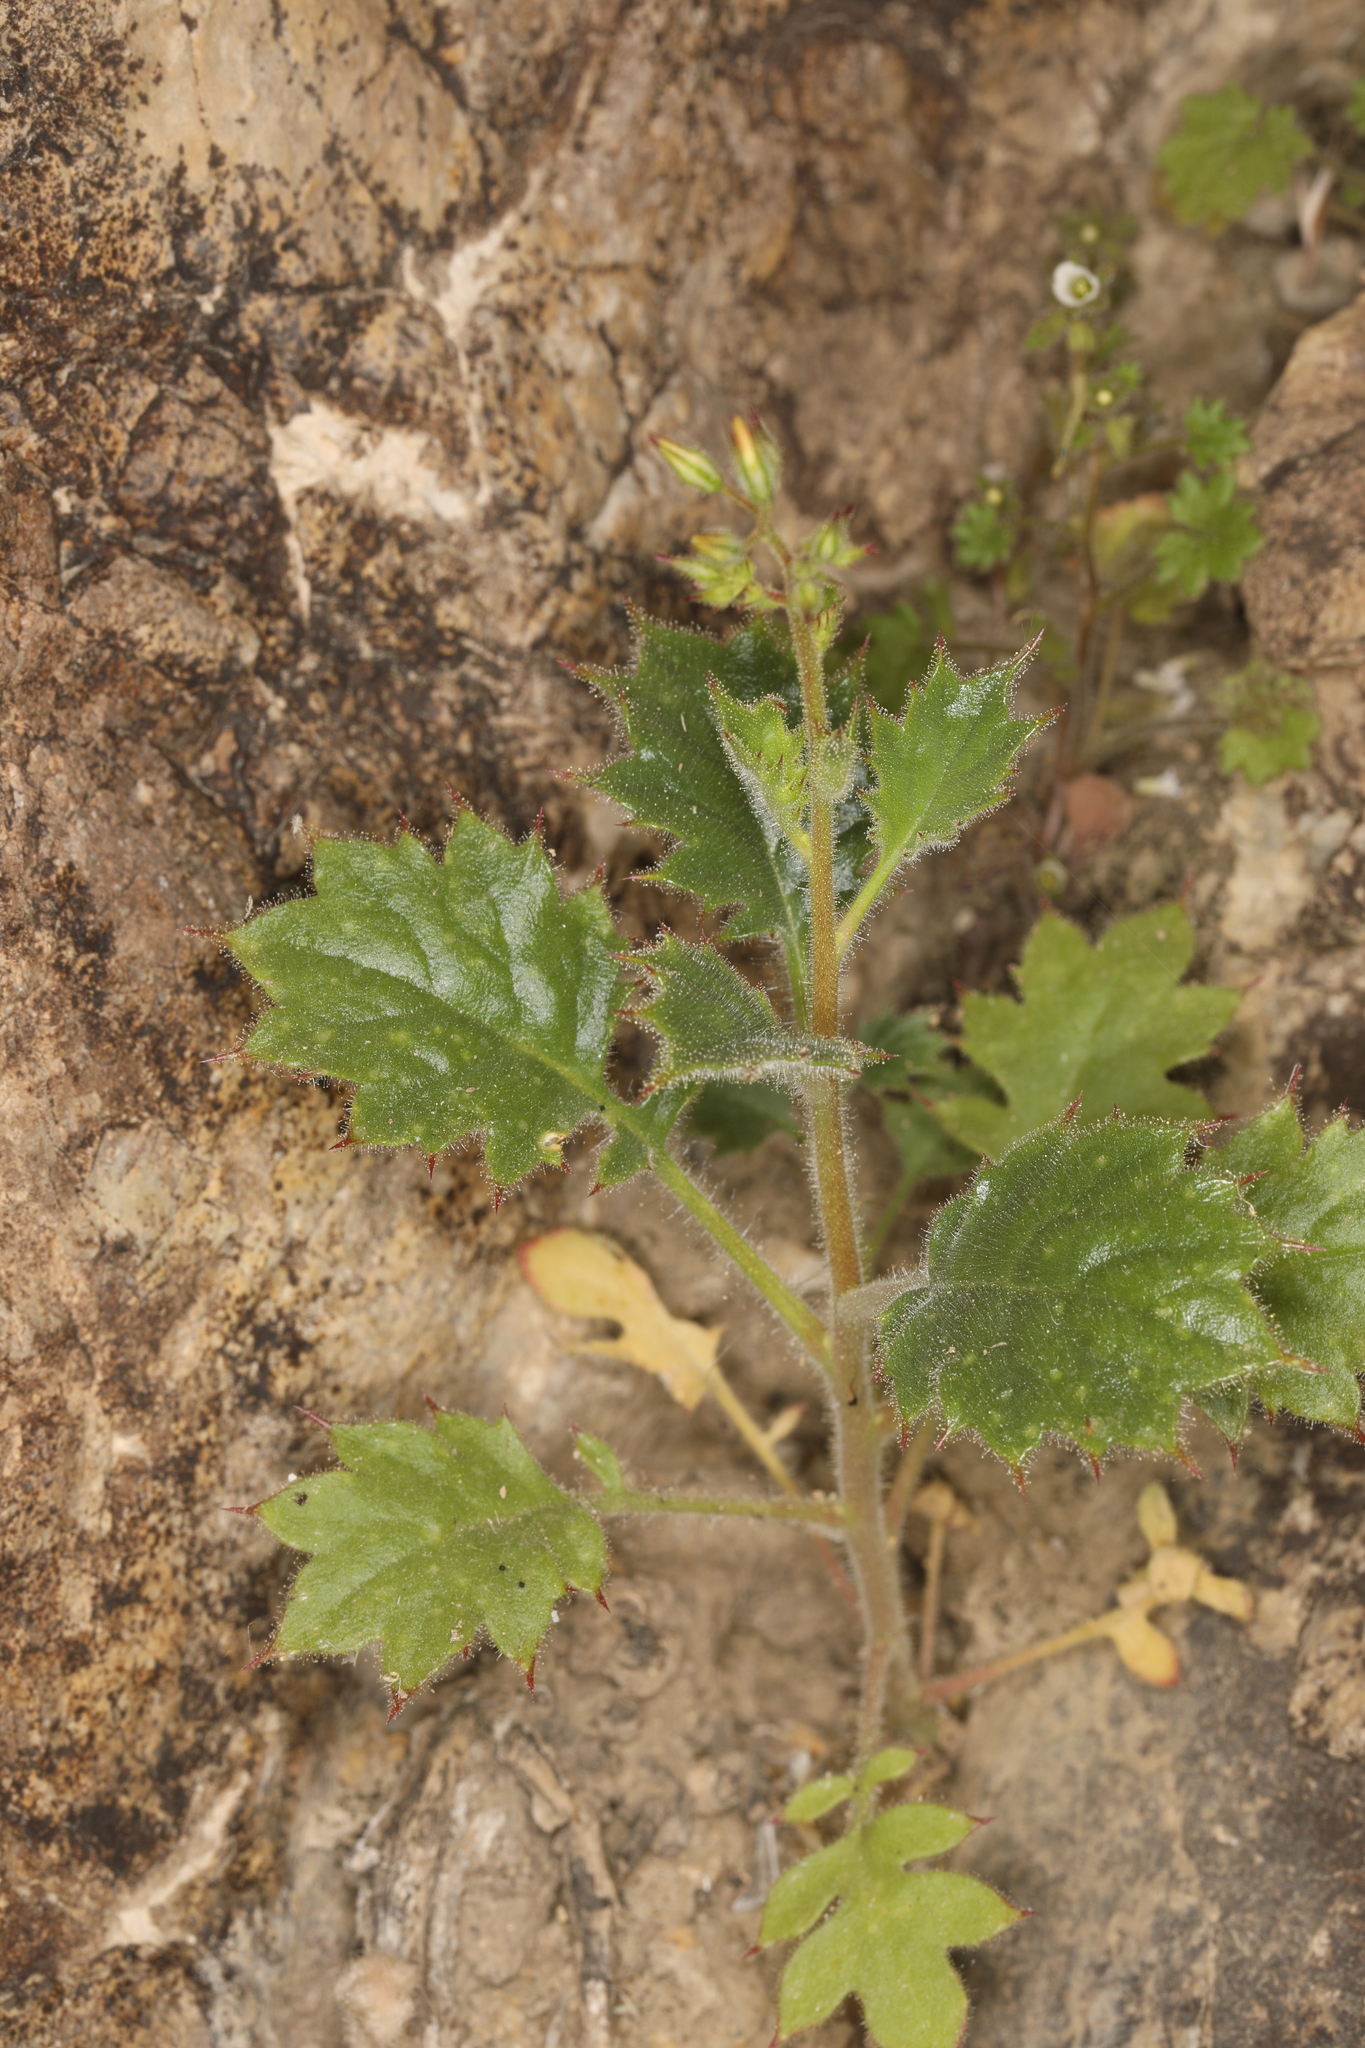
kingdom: Plantae
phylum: Tracheophyta
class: Magnoliopsida
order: Ericales
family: Polemoniaceae
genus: Aliciella
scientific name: Aliciella latifolia
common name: Broad-leaf gilia
